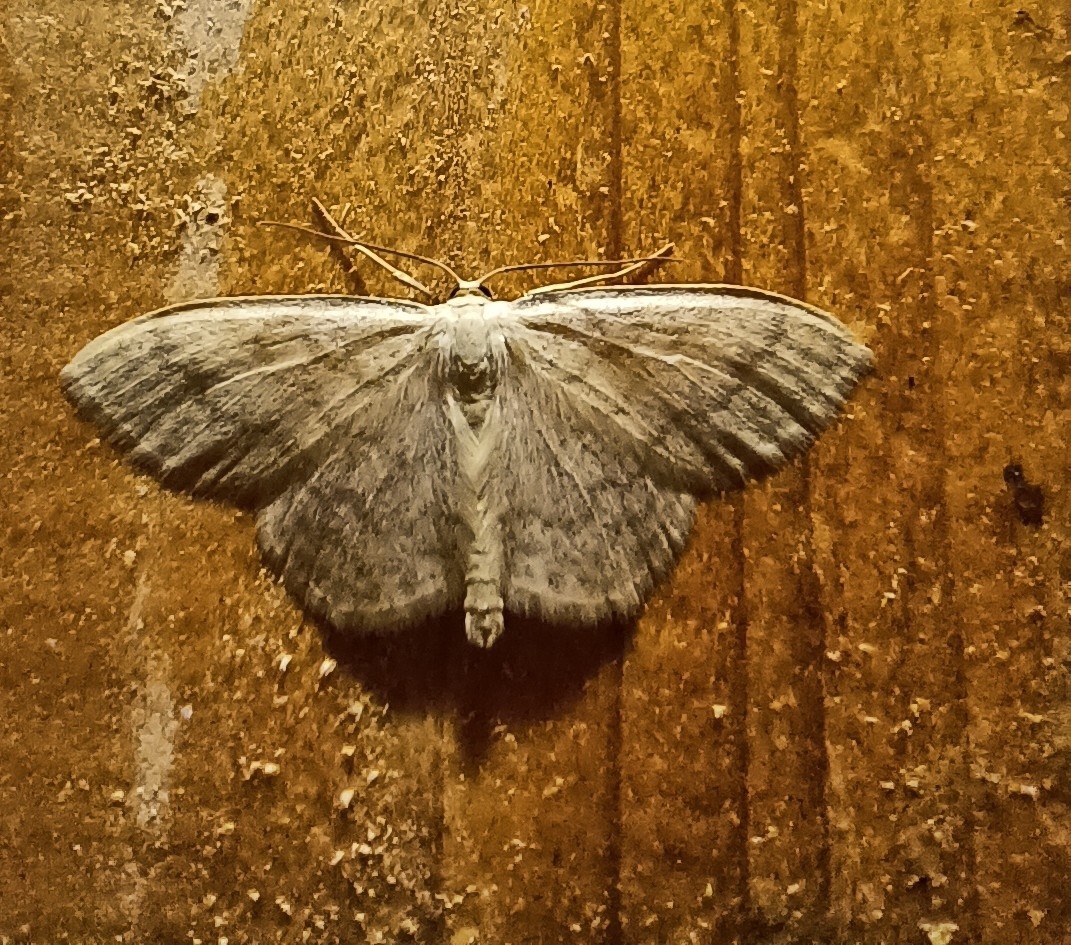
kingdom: Animalia
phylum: Arthropoda
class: Insecta
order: Lepidoptera
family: Geometridae
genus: Scopula
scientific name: Scopula floslactata
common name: Cream wave
